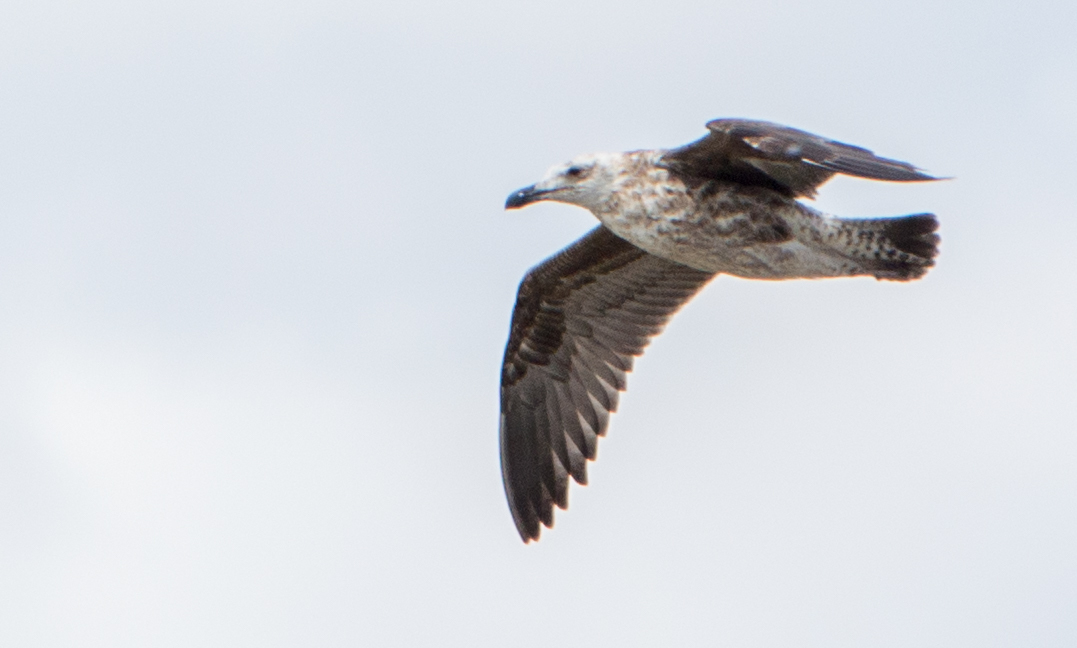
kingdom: Animalia
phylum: Chordata
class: Aves
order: Charadriiformes
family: Laridae
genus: Larus
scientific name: Larus dominicanus
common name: Kelp gull
